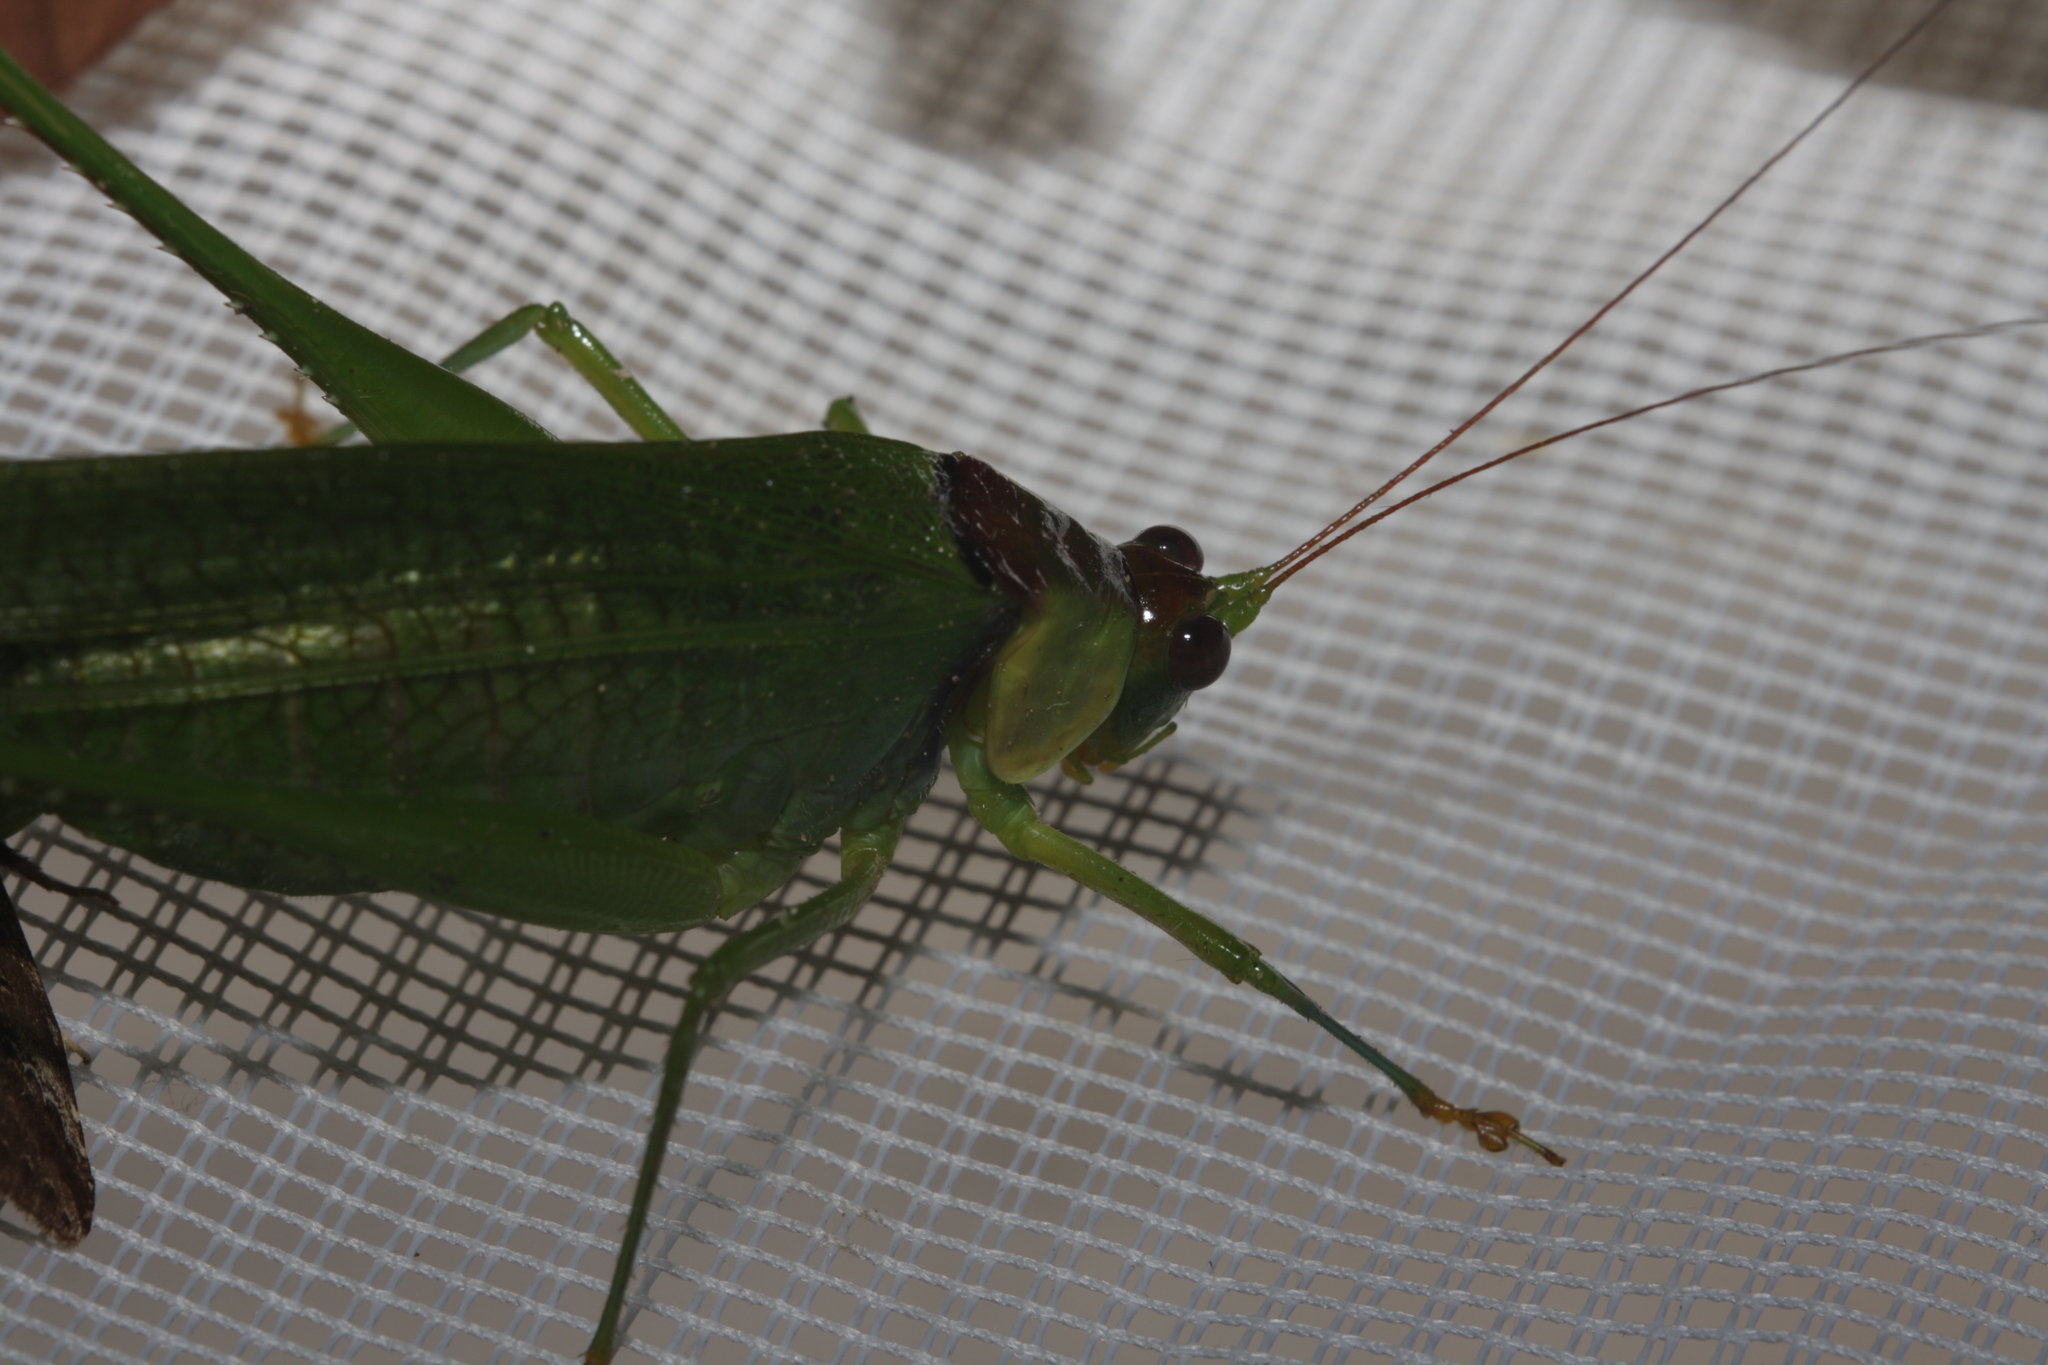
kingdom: Animalia
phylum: Arthropoda
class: Insecta
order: Orthoptera
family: Tettigoniidae
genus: Euceraia
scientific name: Euceraia atryx
